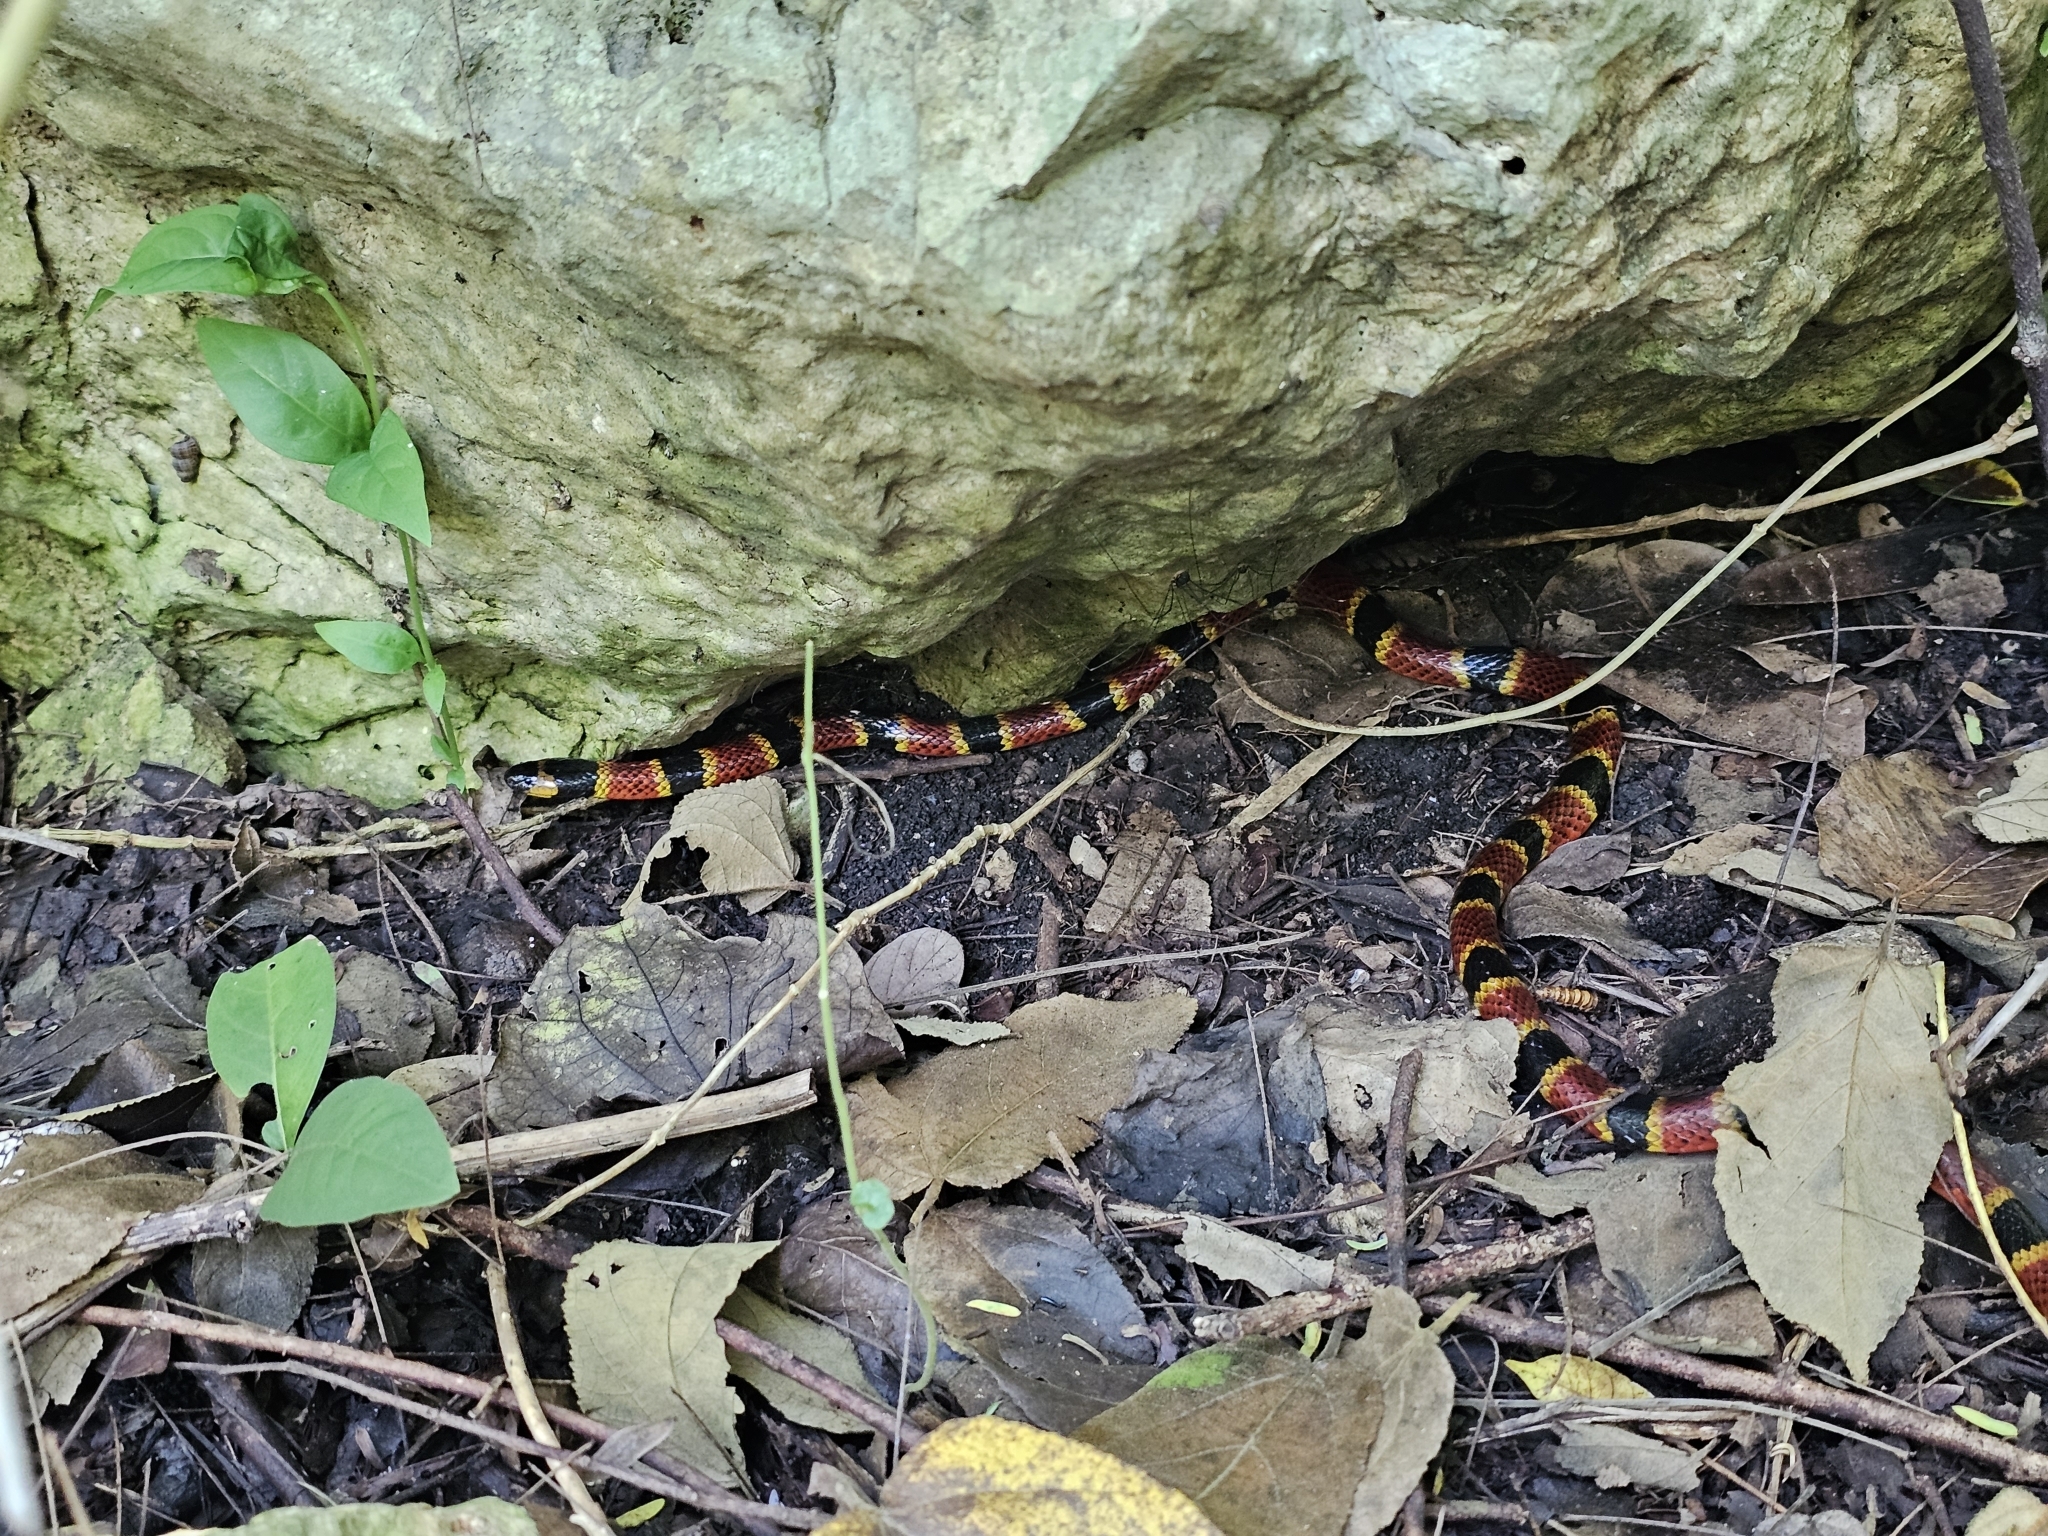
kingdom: Animalia
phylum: Chordata
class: Squamata
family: Elapidae
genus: Micrurus
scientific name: Micrurus diastema
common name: Diastema coral snake
